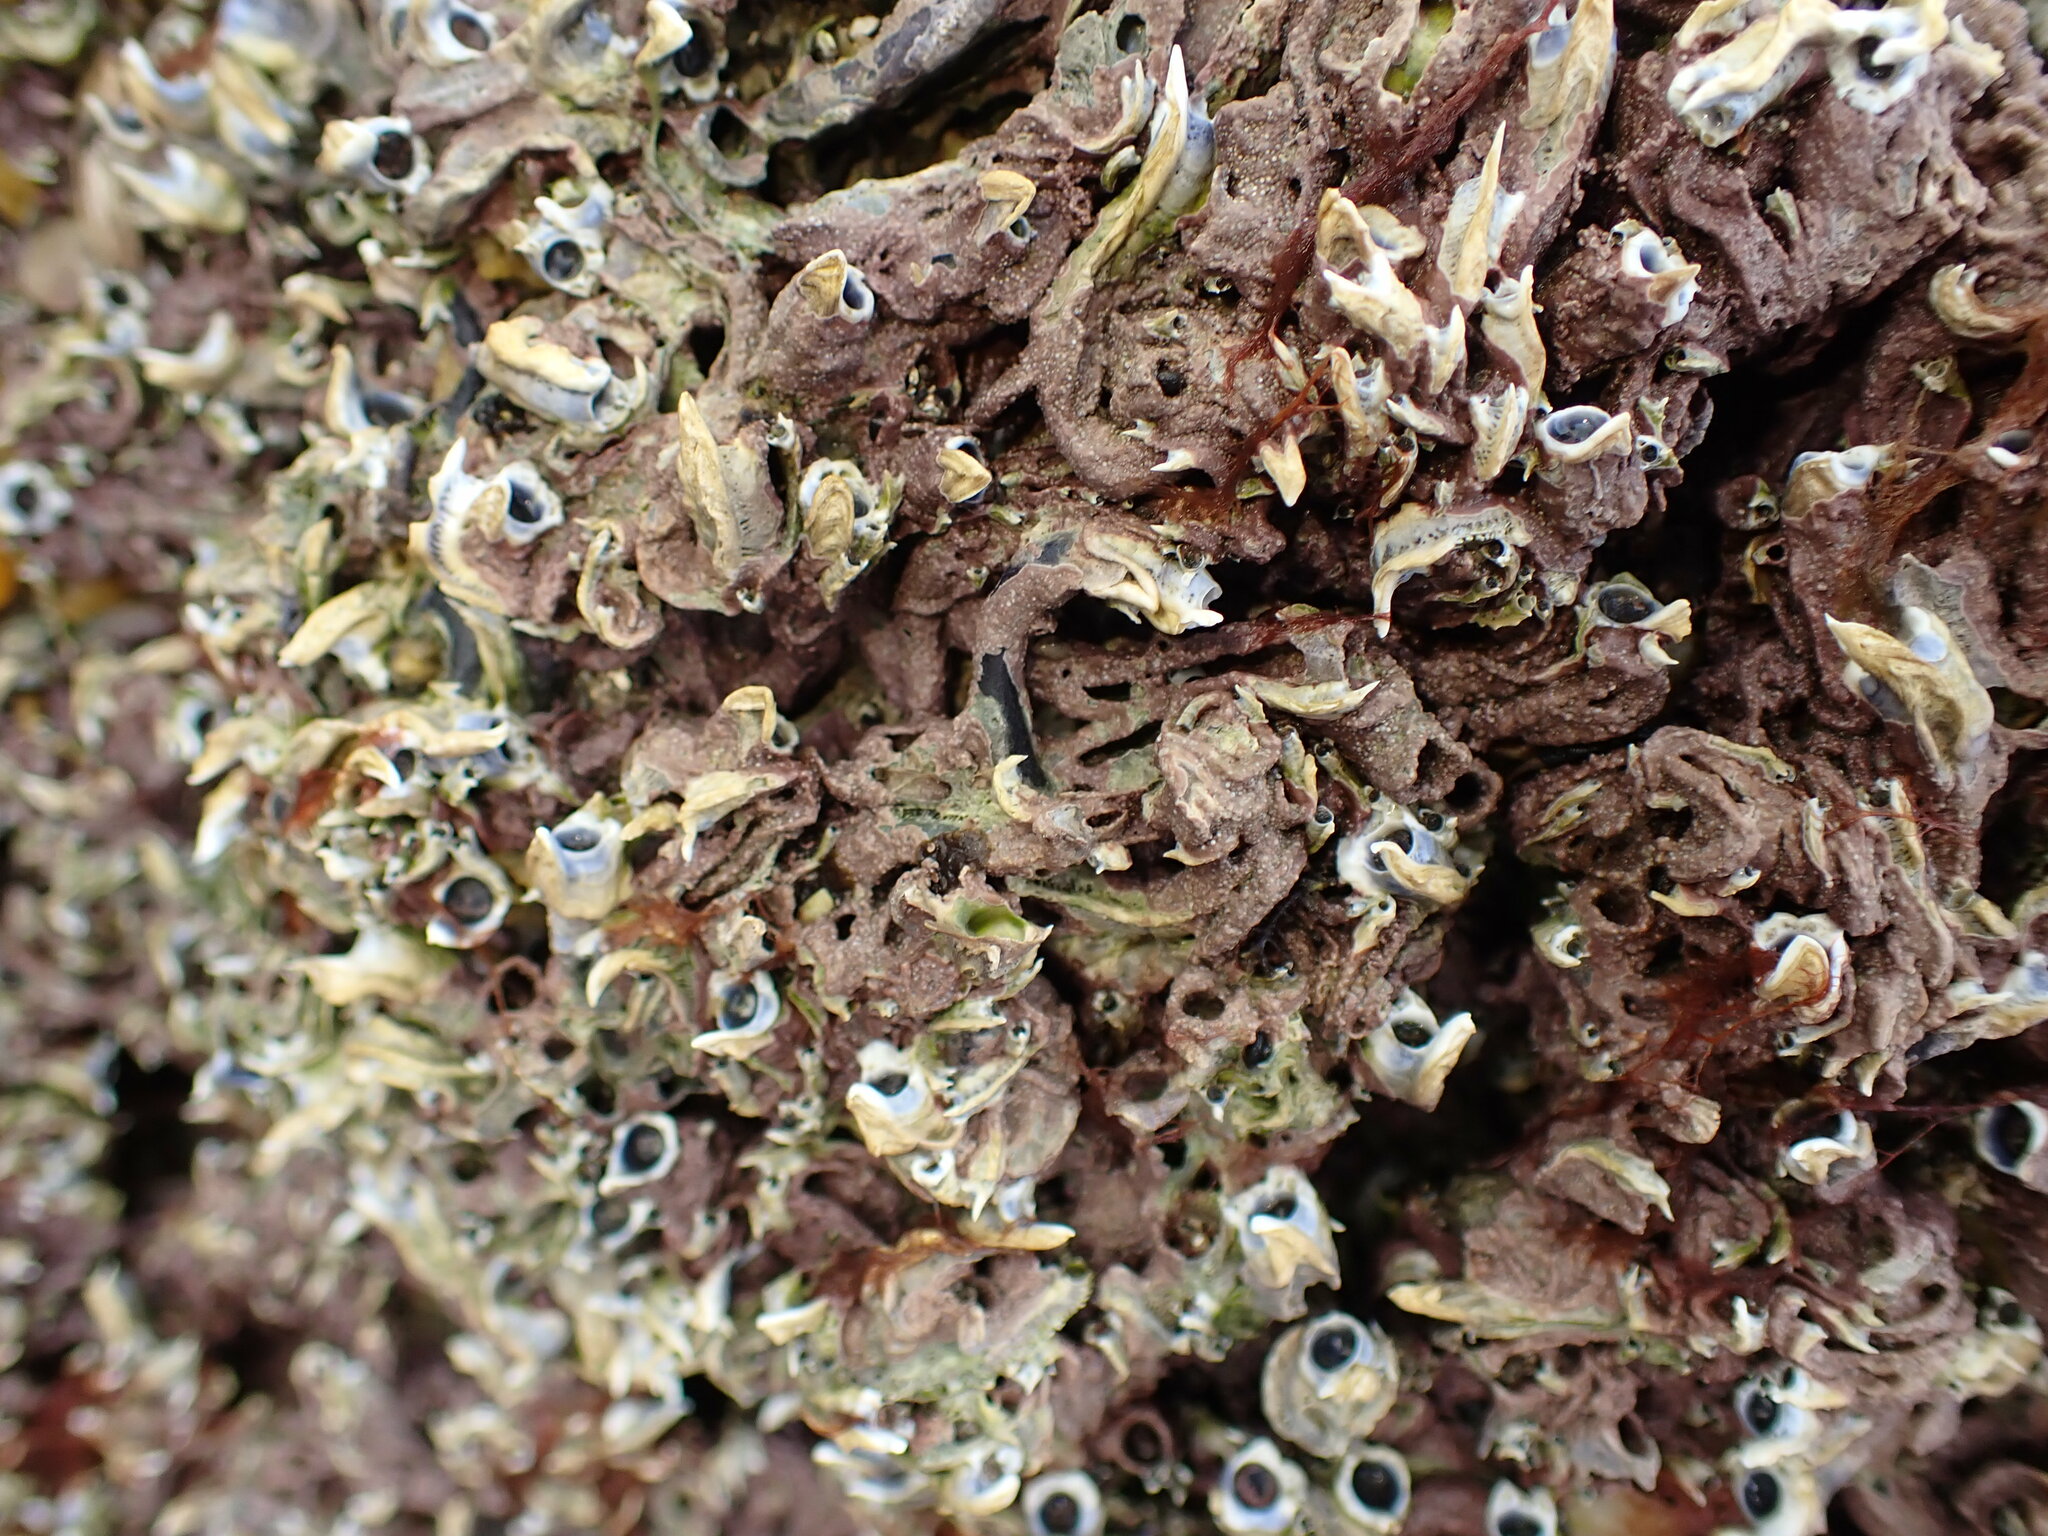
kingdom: Animalia
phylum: Annelida
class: Polychaeta
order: Sabellida
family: Serpulidae
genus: Spirobranchus
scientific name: Spirobranchus cariniferus
